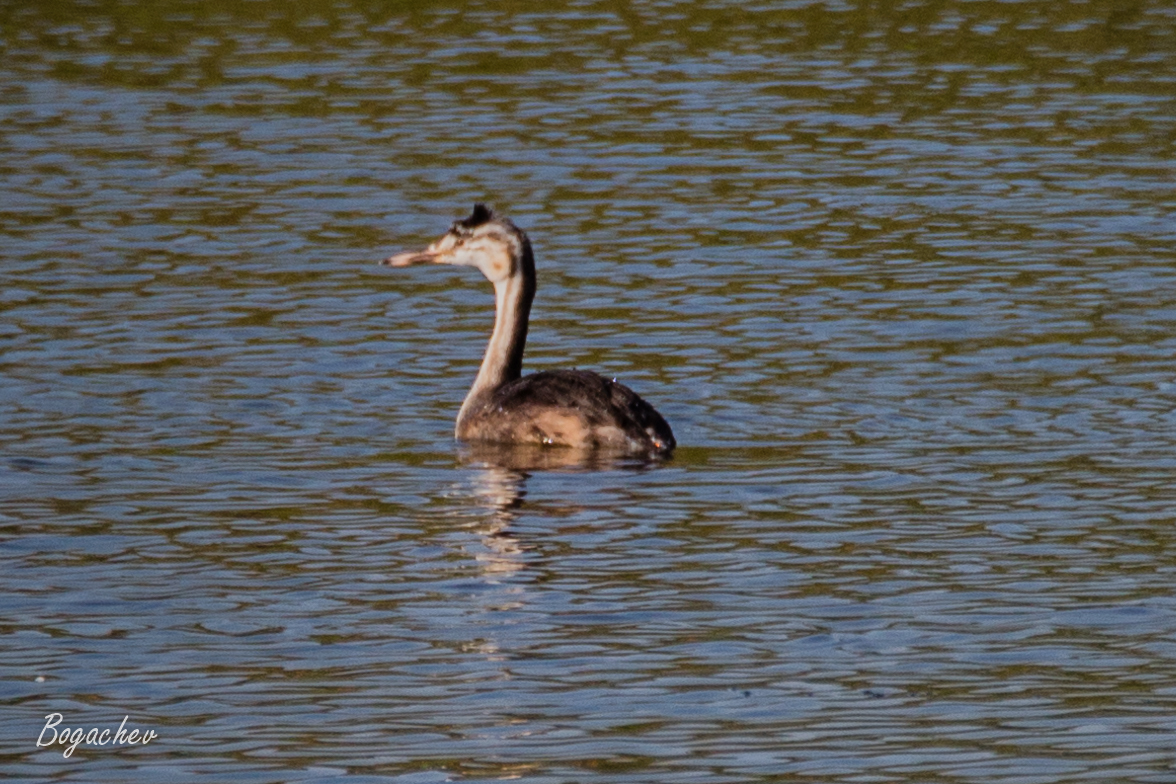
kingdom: Animalia
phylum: Chordata
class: Aves
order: Podicipediformes
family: Podicipedidae
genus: Podiceps
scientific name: Podiceps cristatus
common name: Great crested grebe
